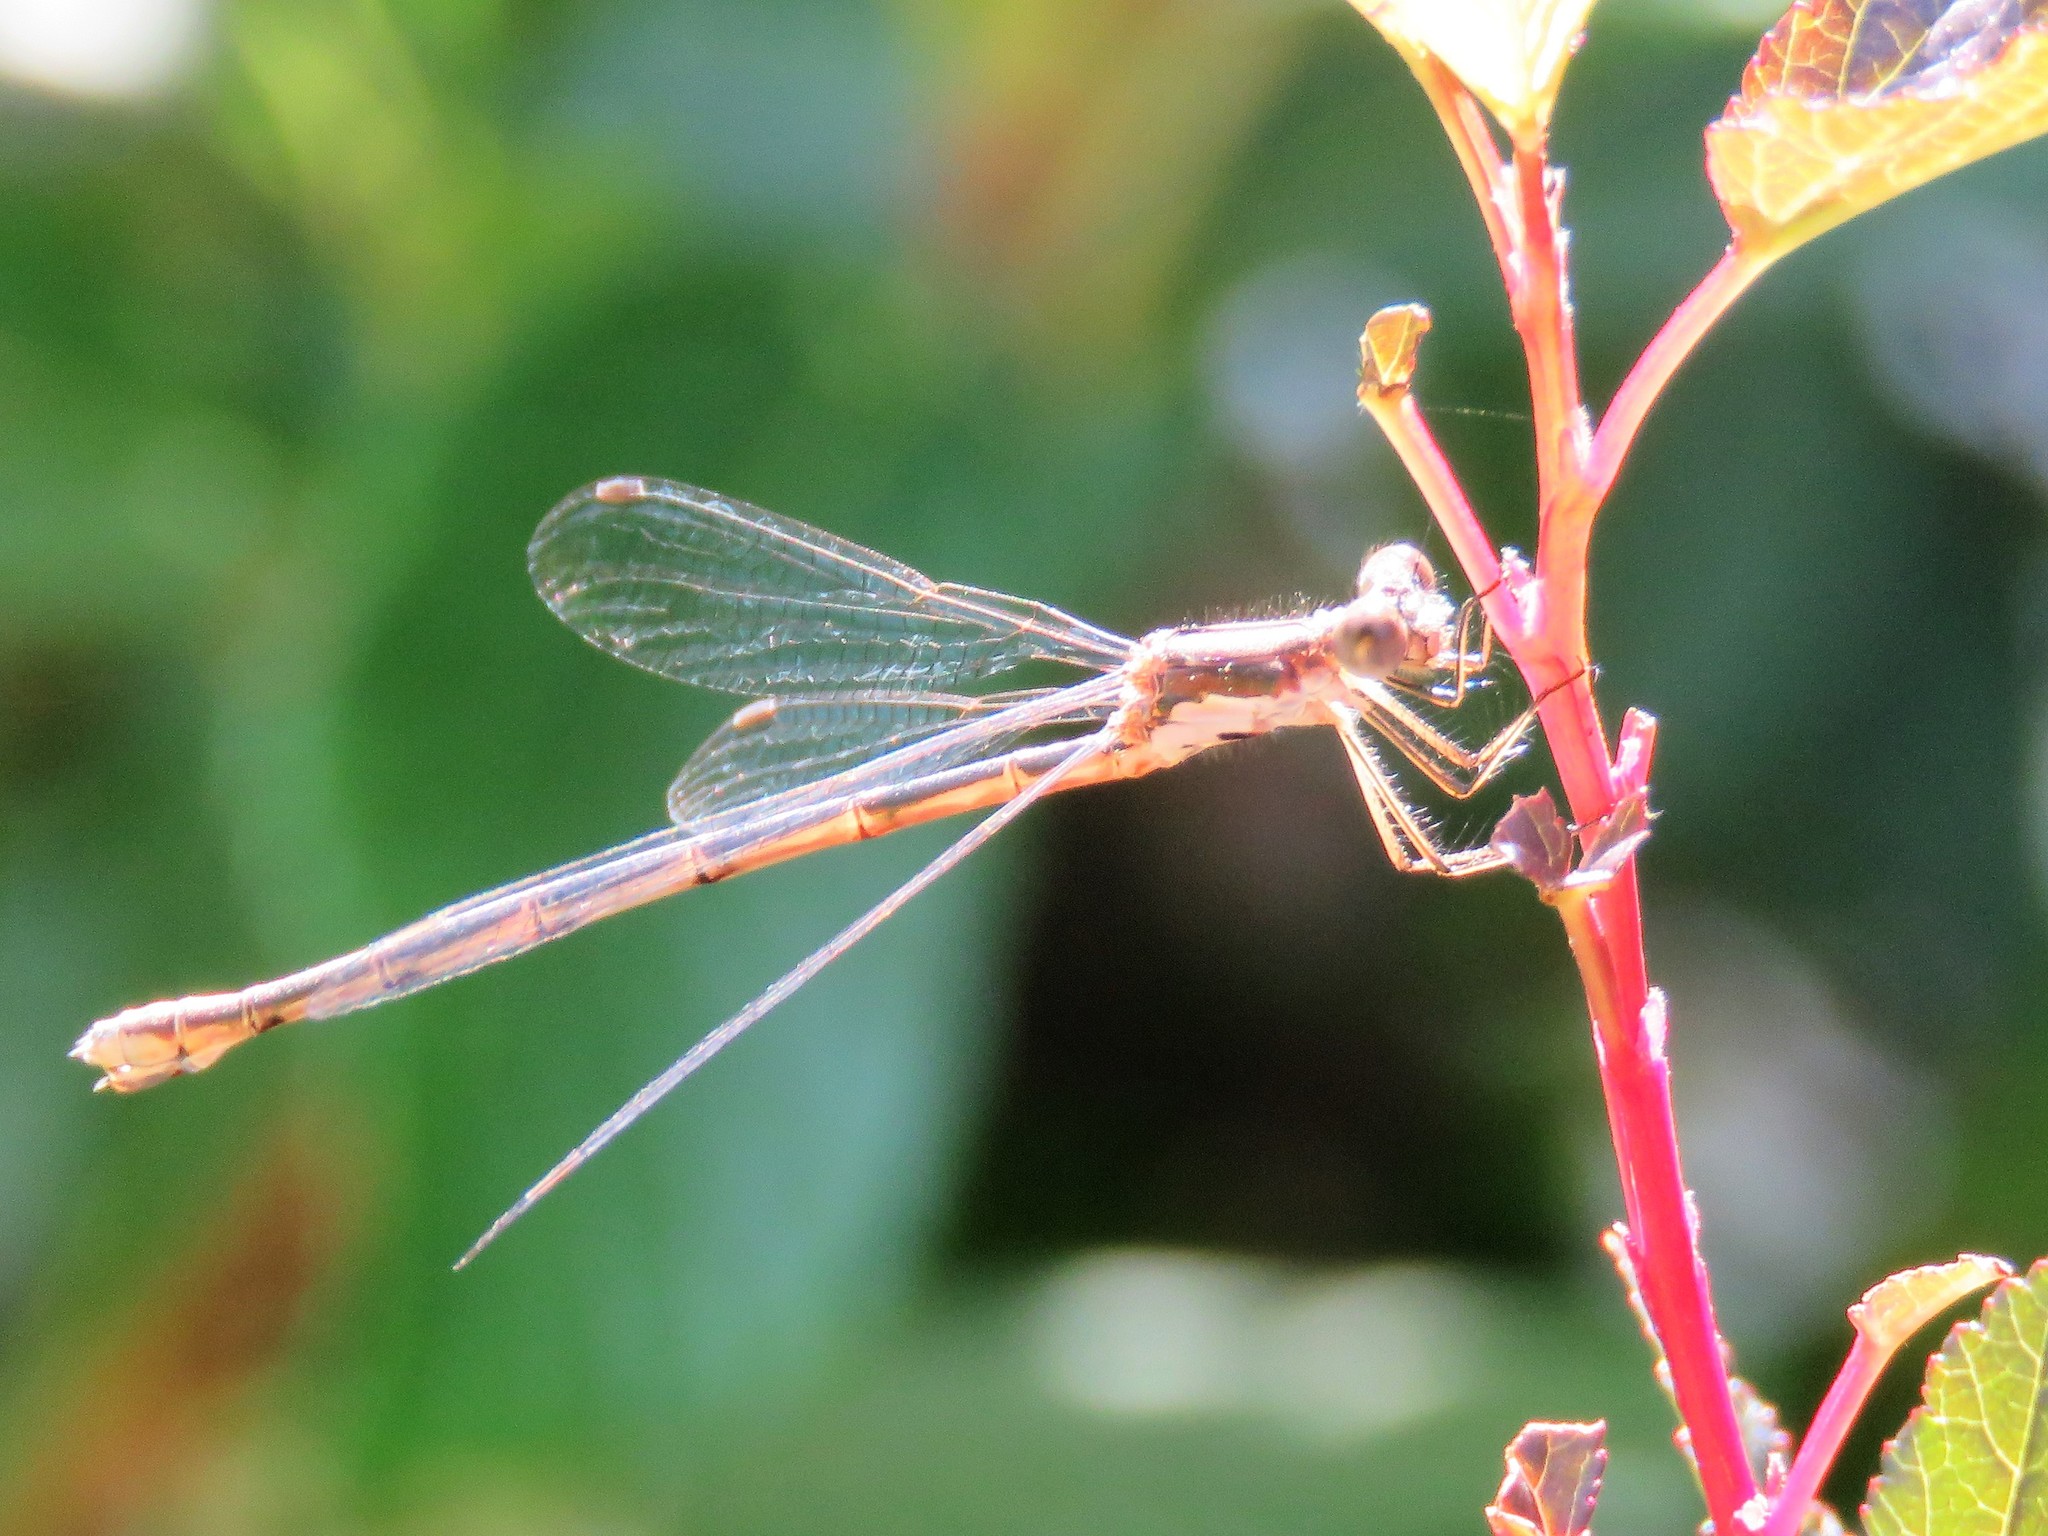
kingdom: Animalia
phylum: Arthropoda
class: Insecta
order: Odonata
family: Lestidae
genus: Lestes
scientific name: Lestes congener
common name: Spotted spreadwing
